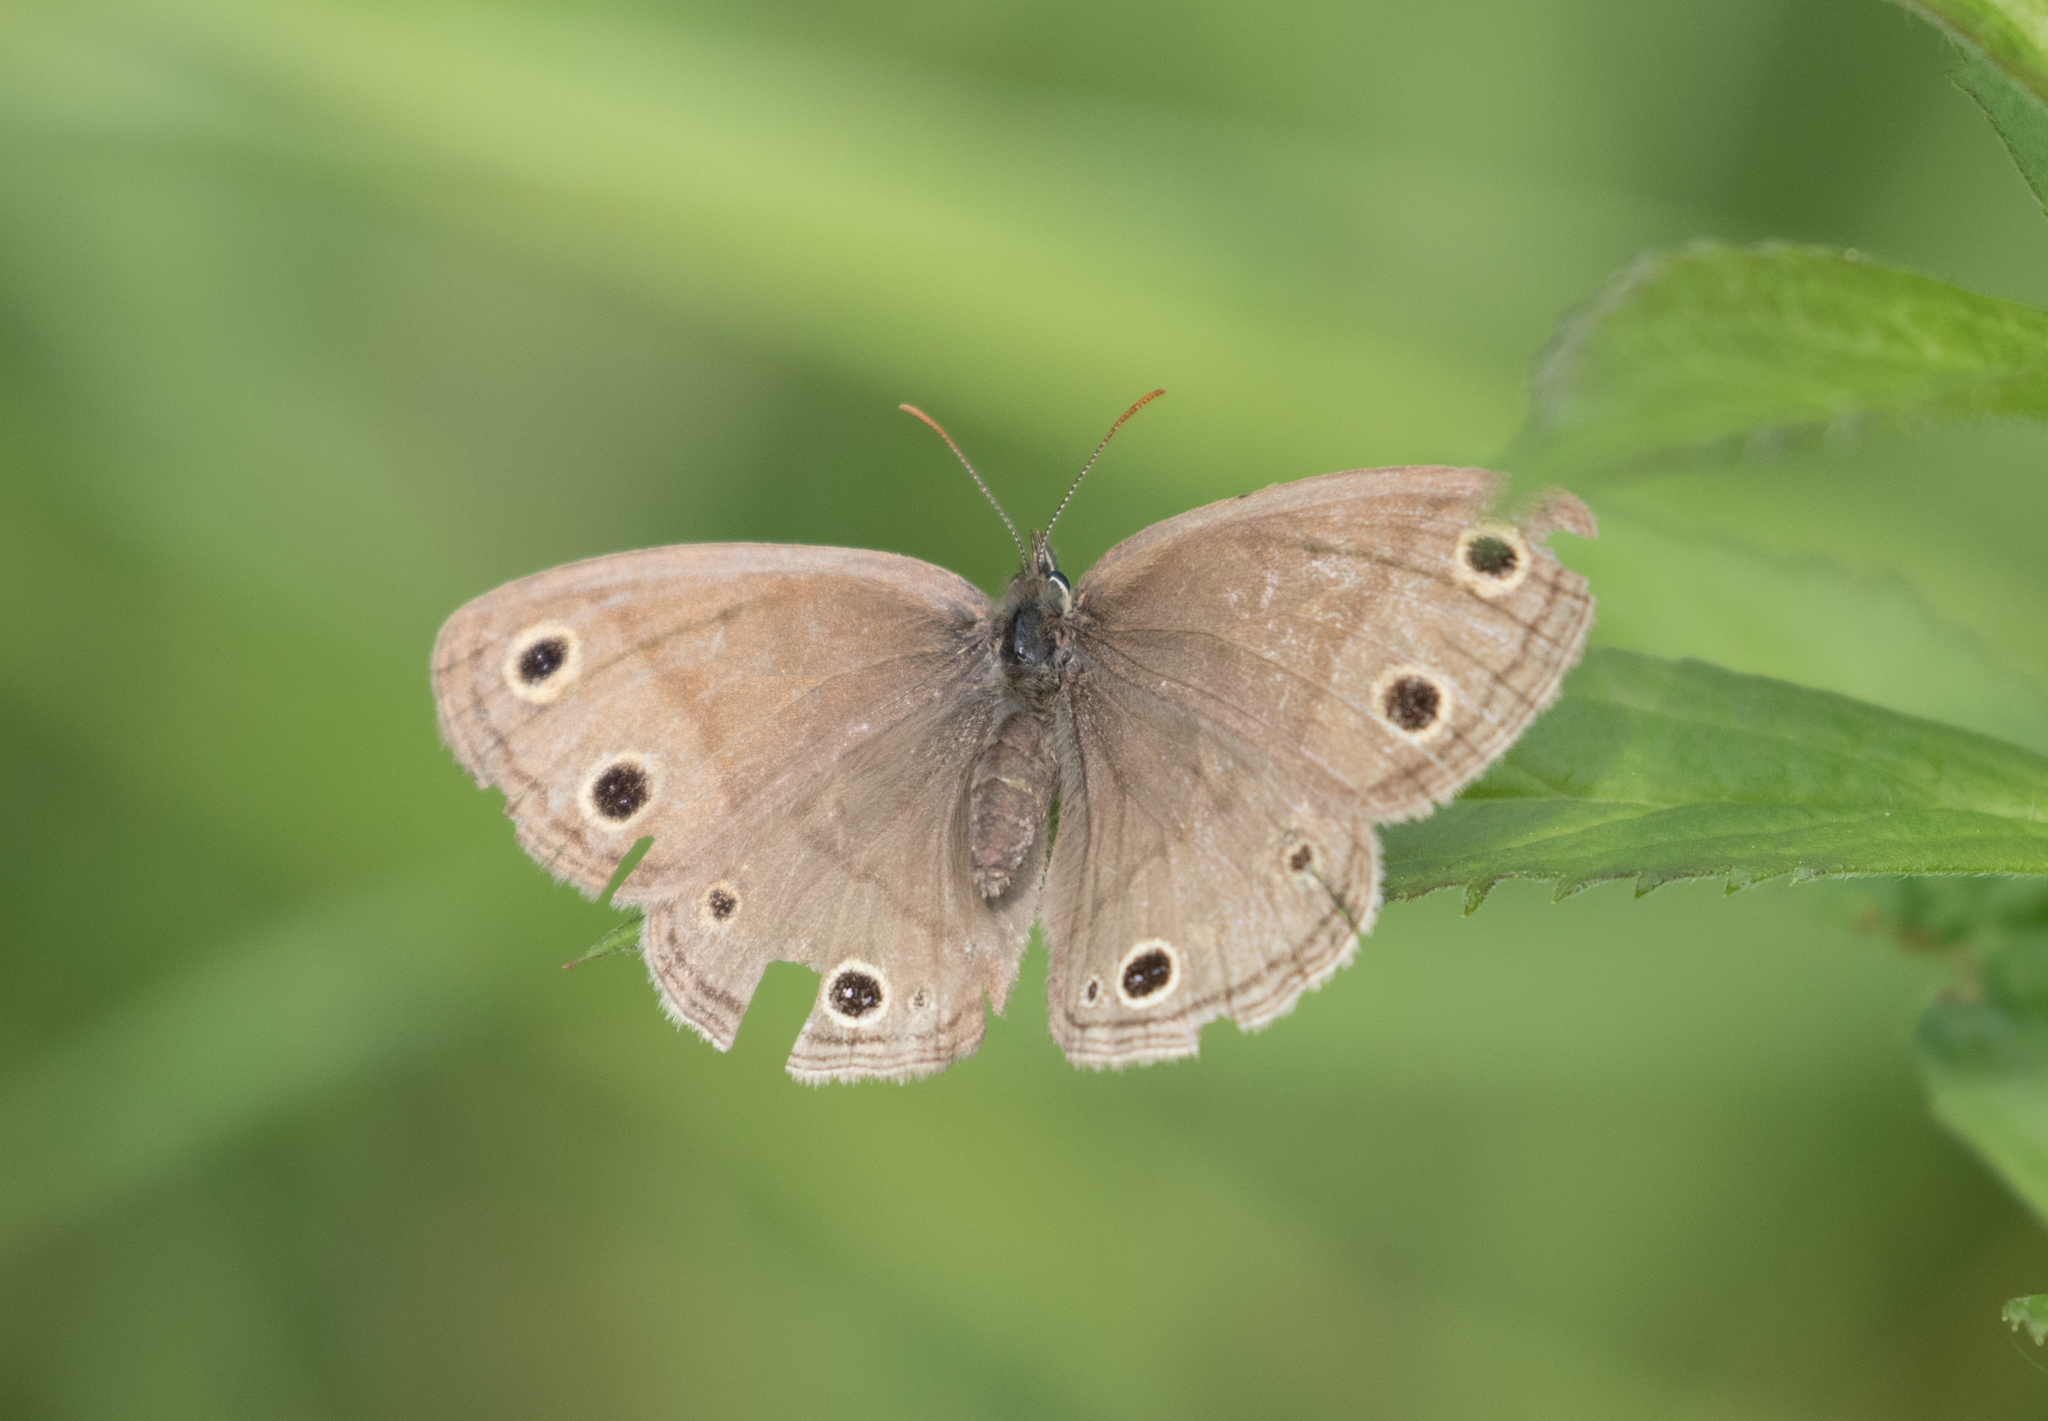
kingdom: Animalia
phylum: Arthropoda
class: Insecta
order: Lepidoptera
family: Nymphalidae
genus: Euptychia
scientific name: Euptychia cymela
